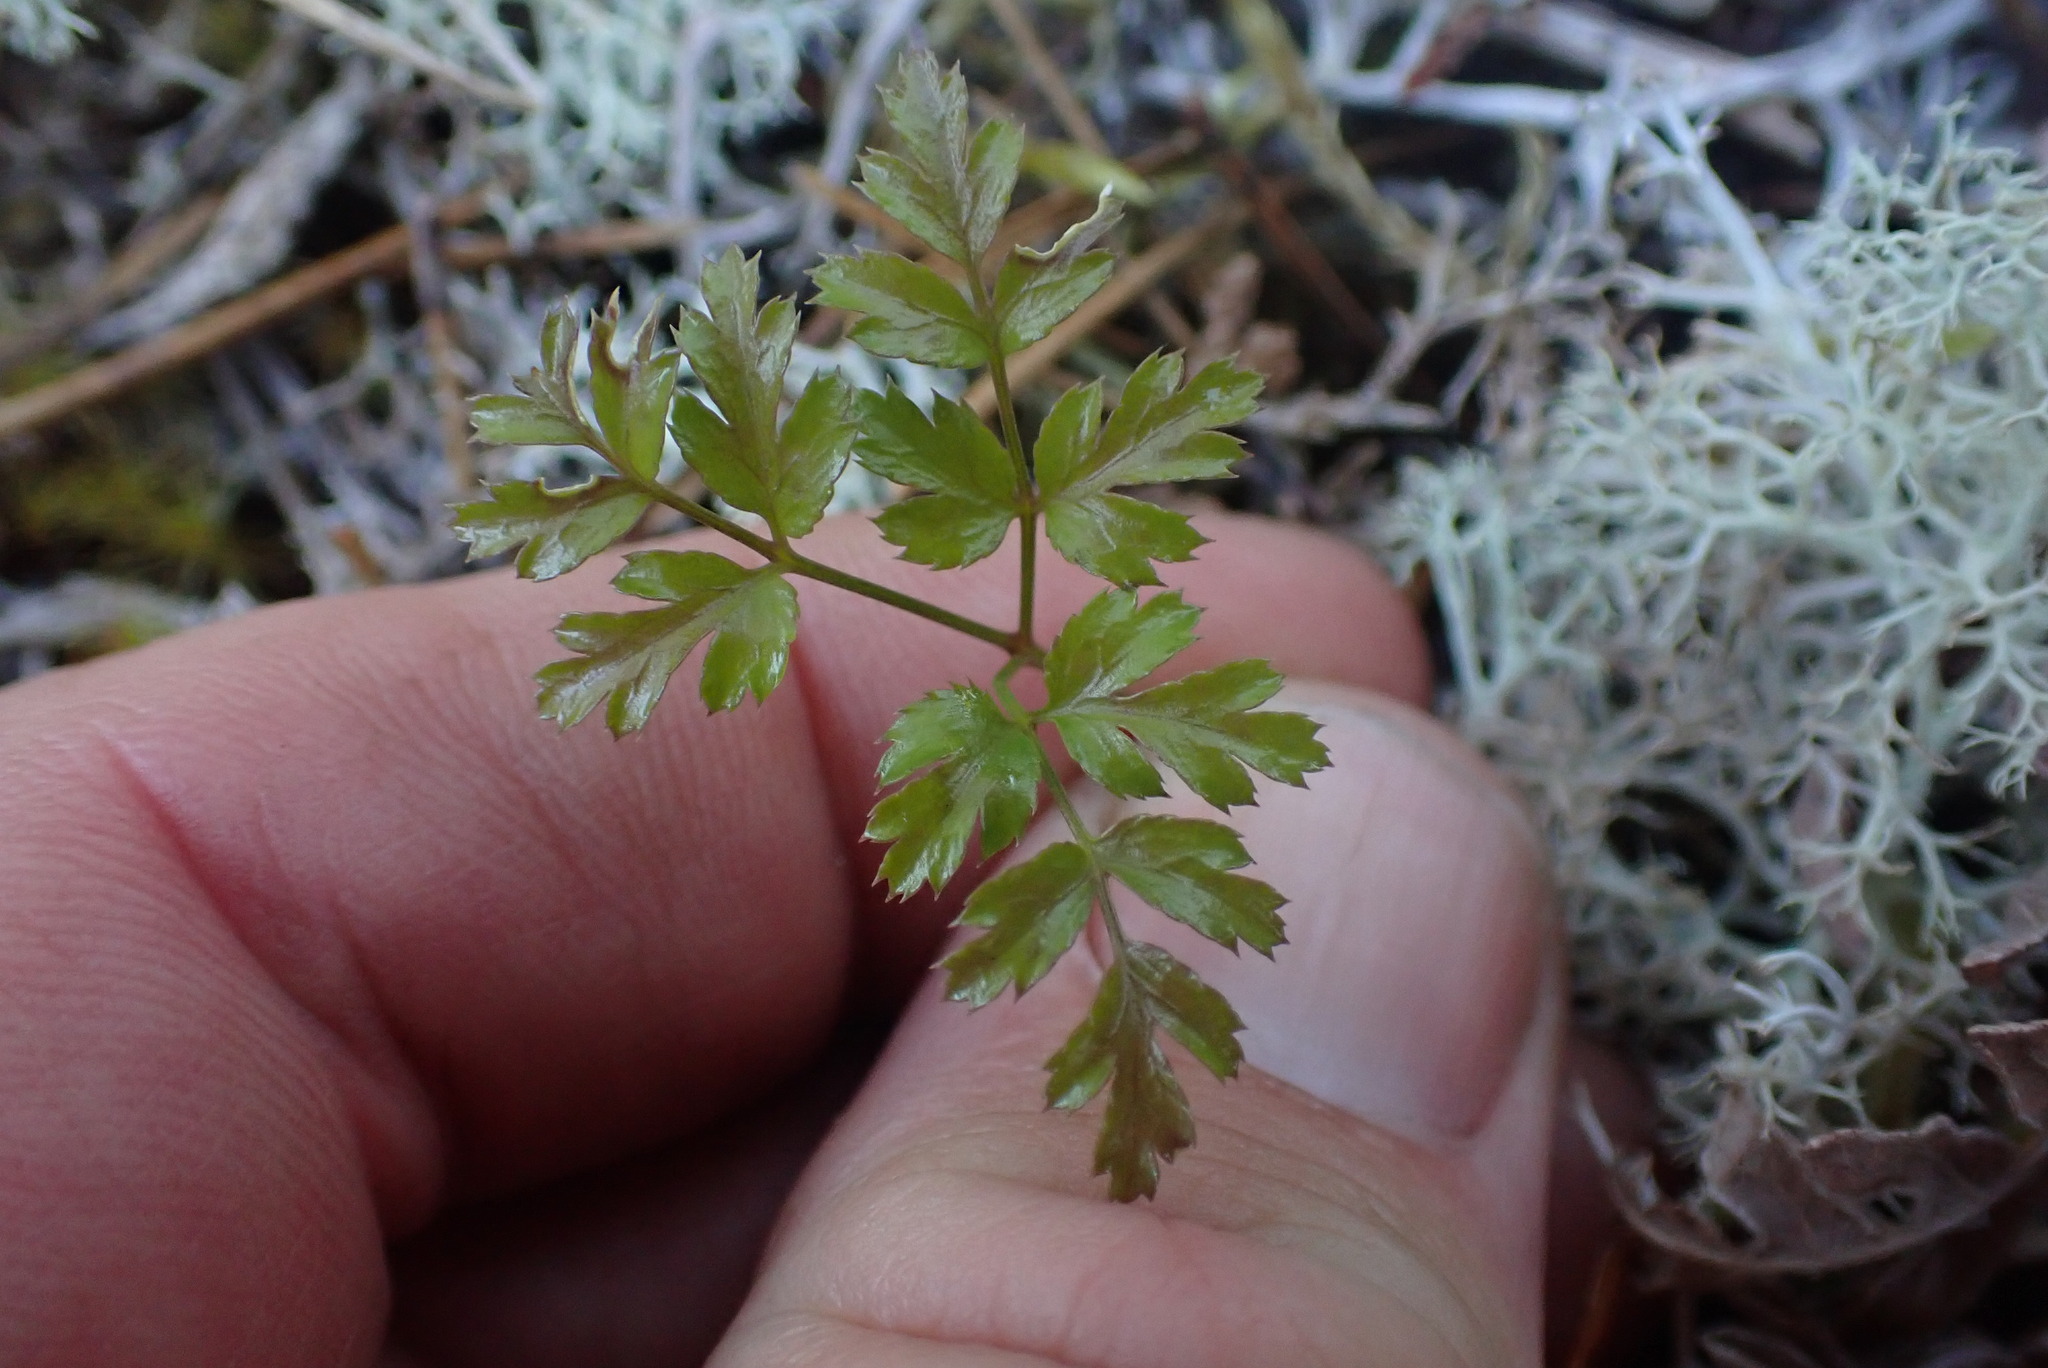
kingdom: Plantae
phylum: Tracheophyta
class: Magnoliopsida
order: Ranunculales
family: Ranunculaceae
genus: Coptis
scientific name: Coptis aspleniifolia
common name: Fern-leaved goldthread
